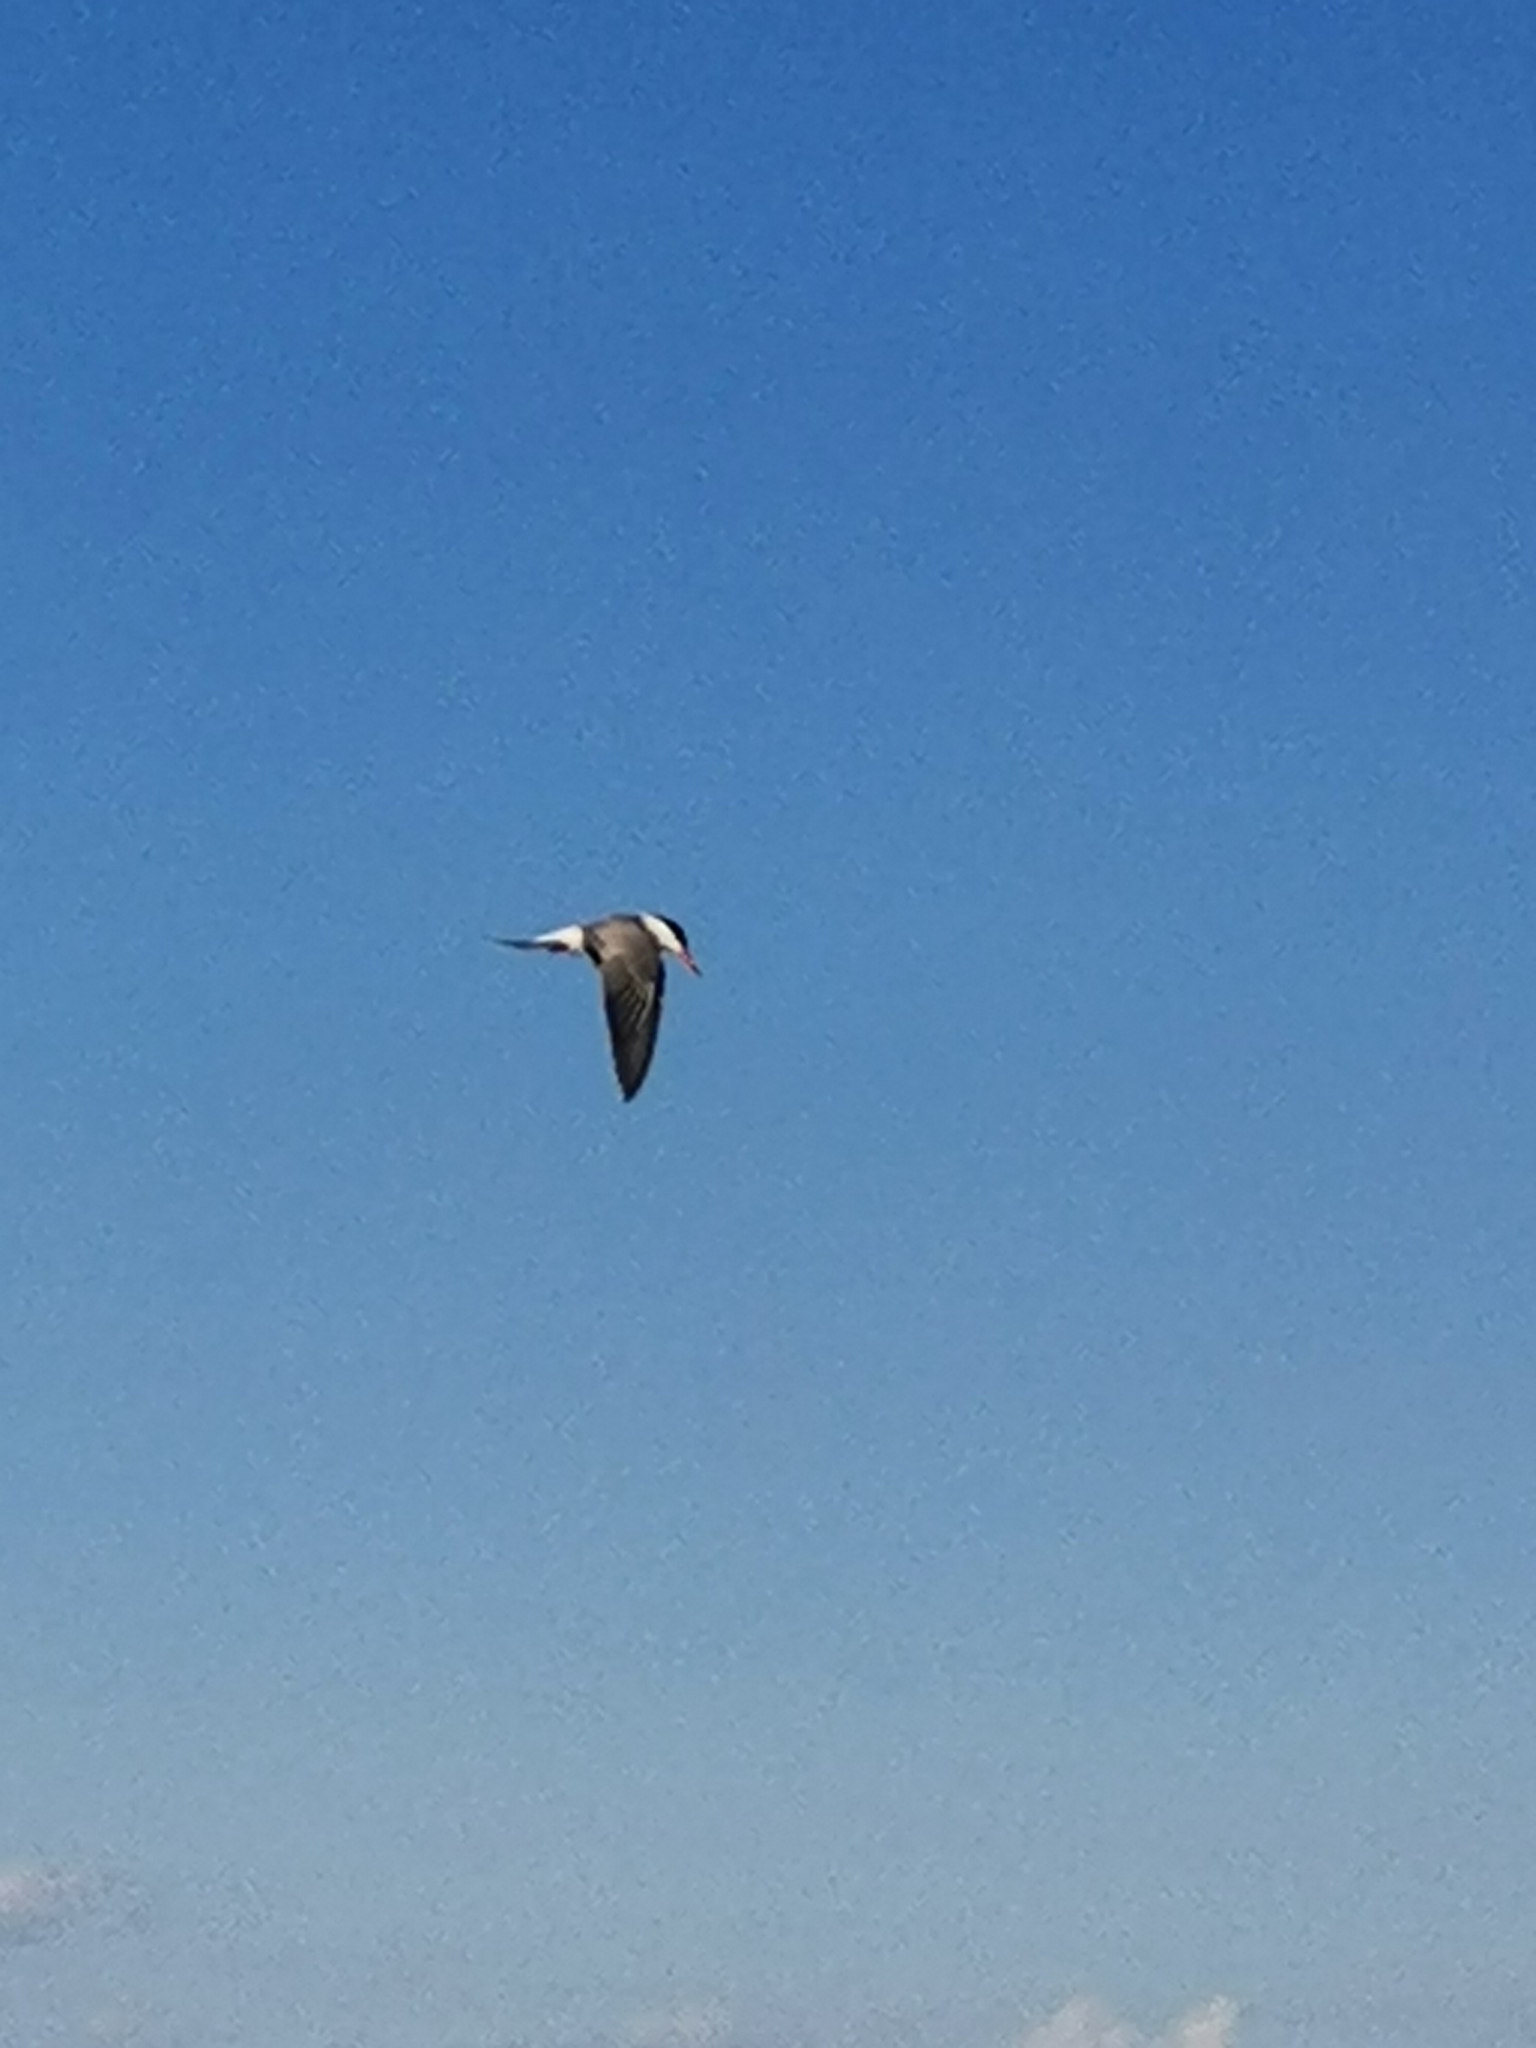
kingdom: Animalia
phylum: Chordata
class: Aves
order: Charadriiformes
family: Laridae
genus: Sterna
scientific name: Sterna hirundo
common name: Common tern
